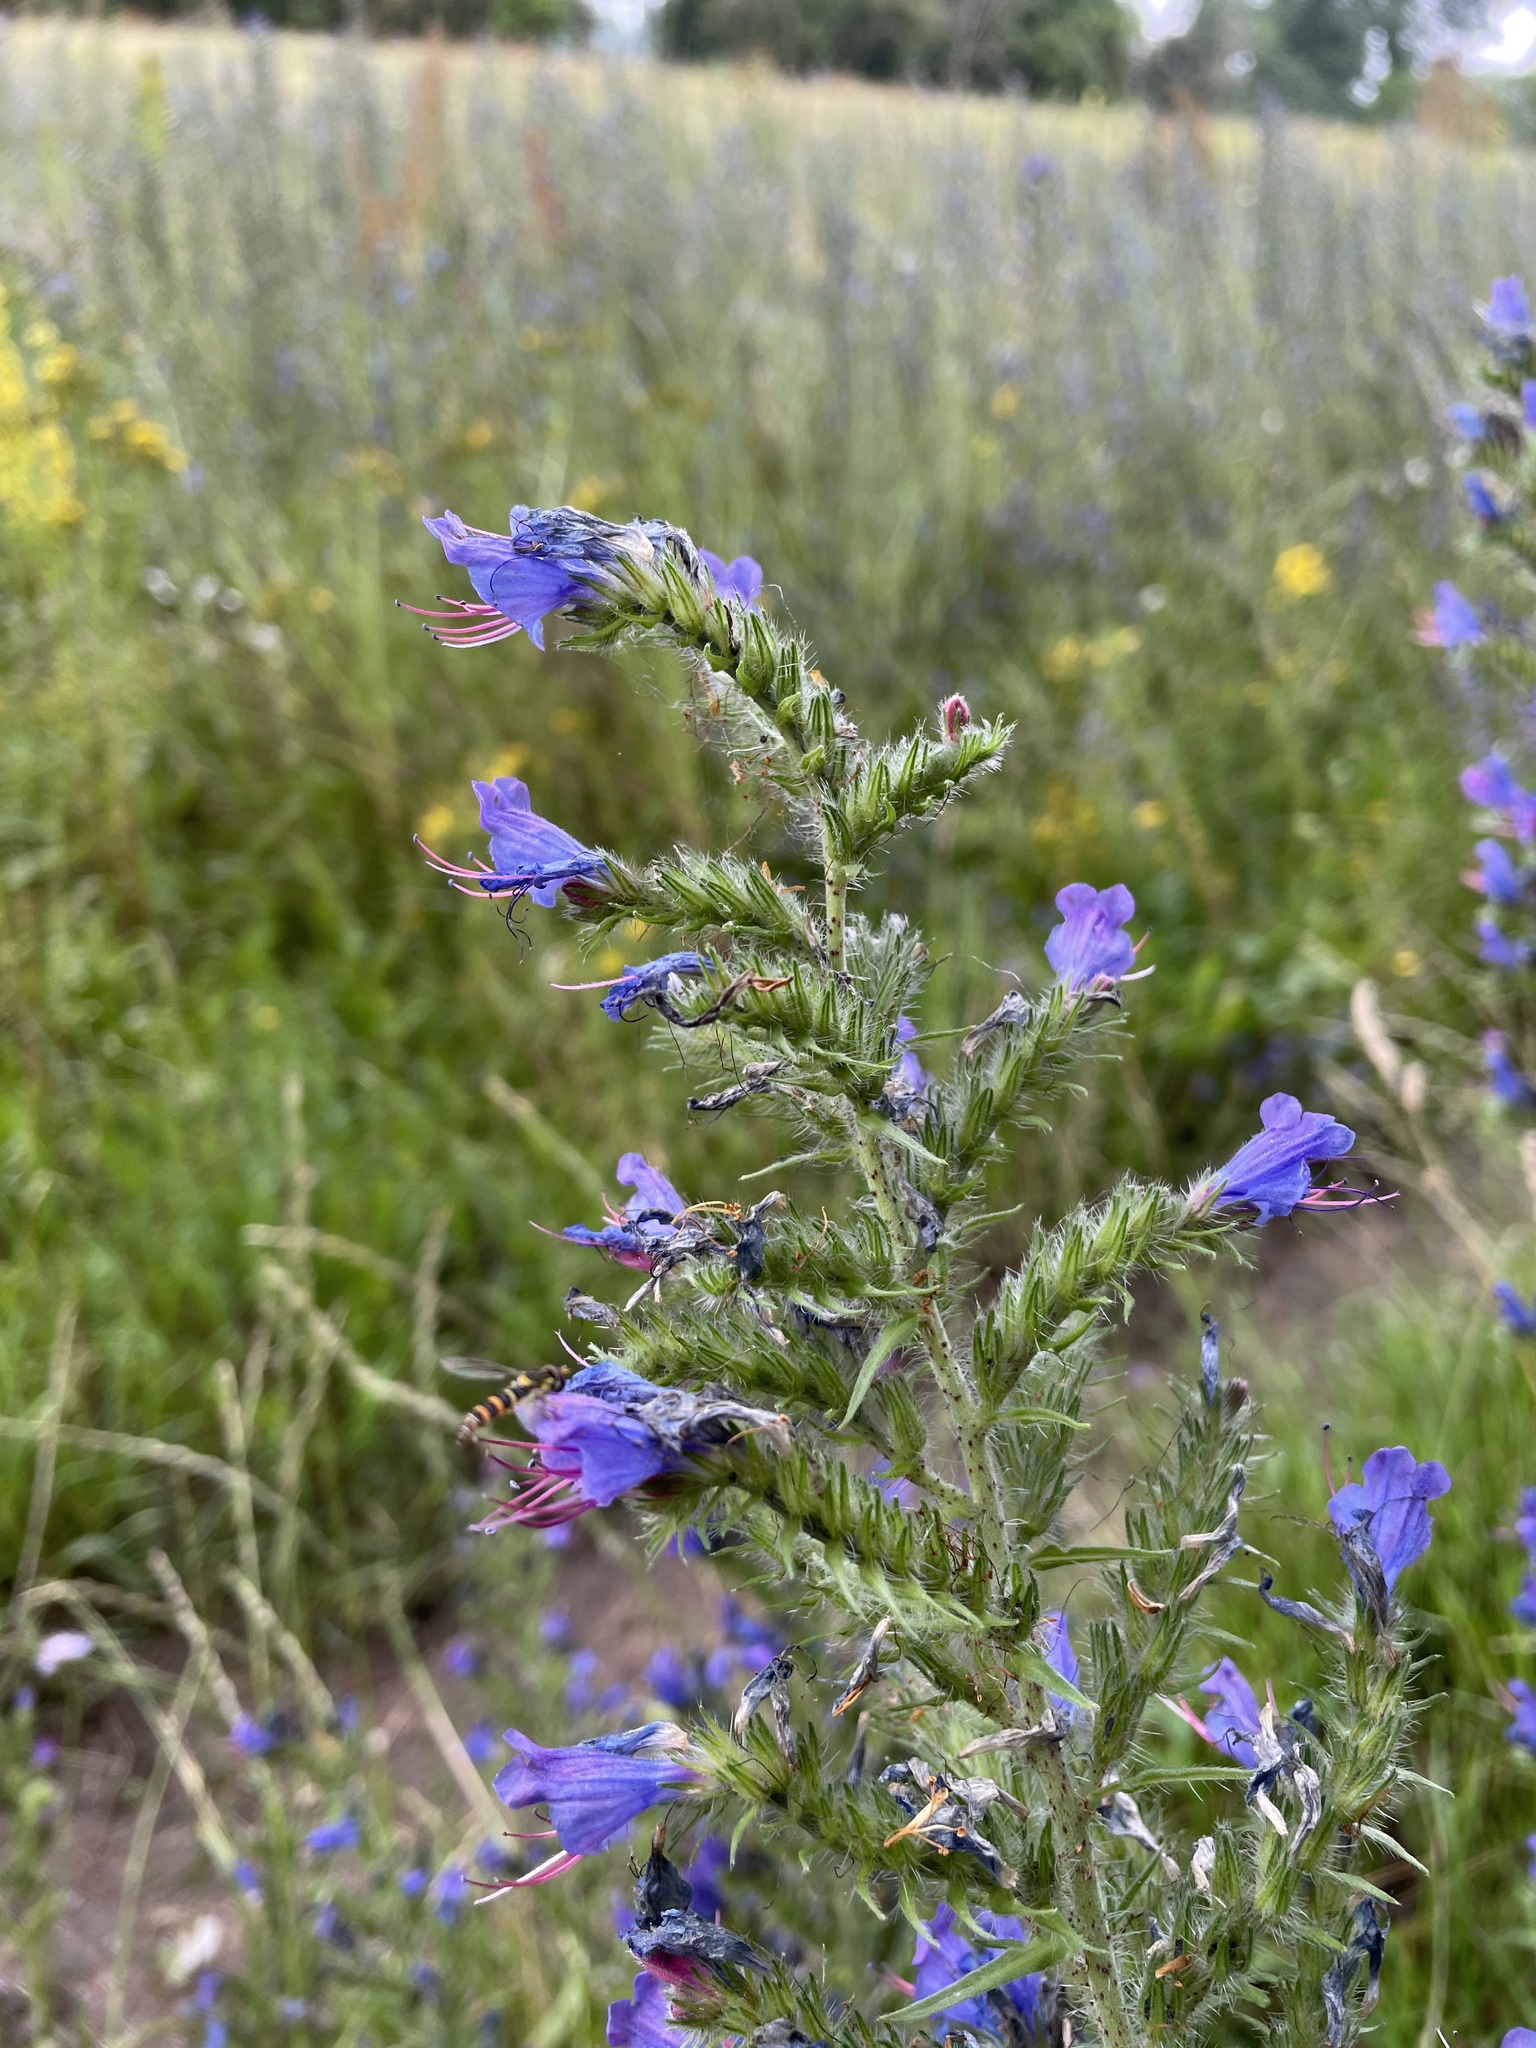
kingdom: Plantae
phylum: Tracheophyta
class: Magnoliopsida
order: Boraginales
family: Boraginaceae
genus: Echium
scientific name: Echium vulgare
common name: Common viper's bugloss
